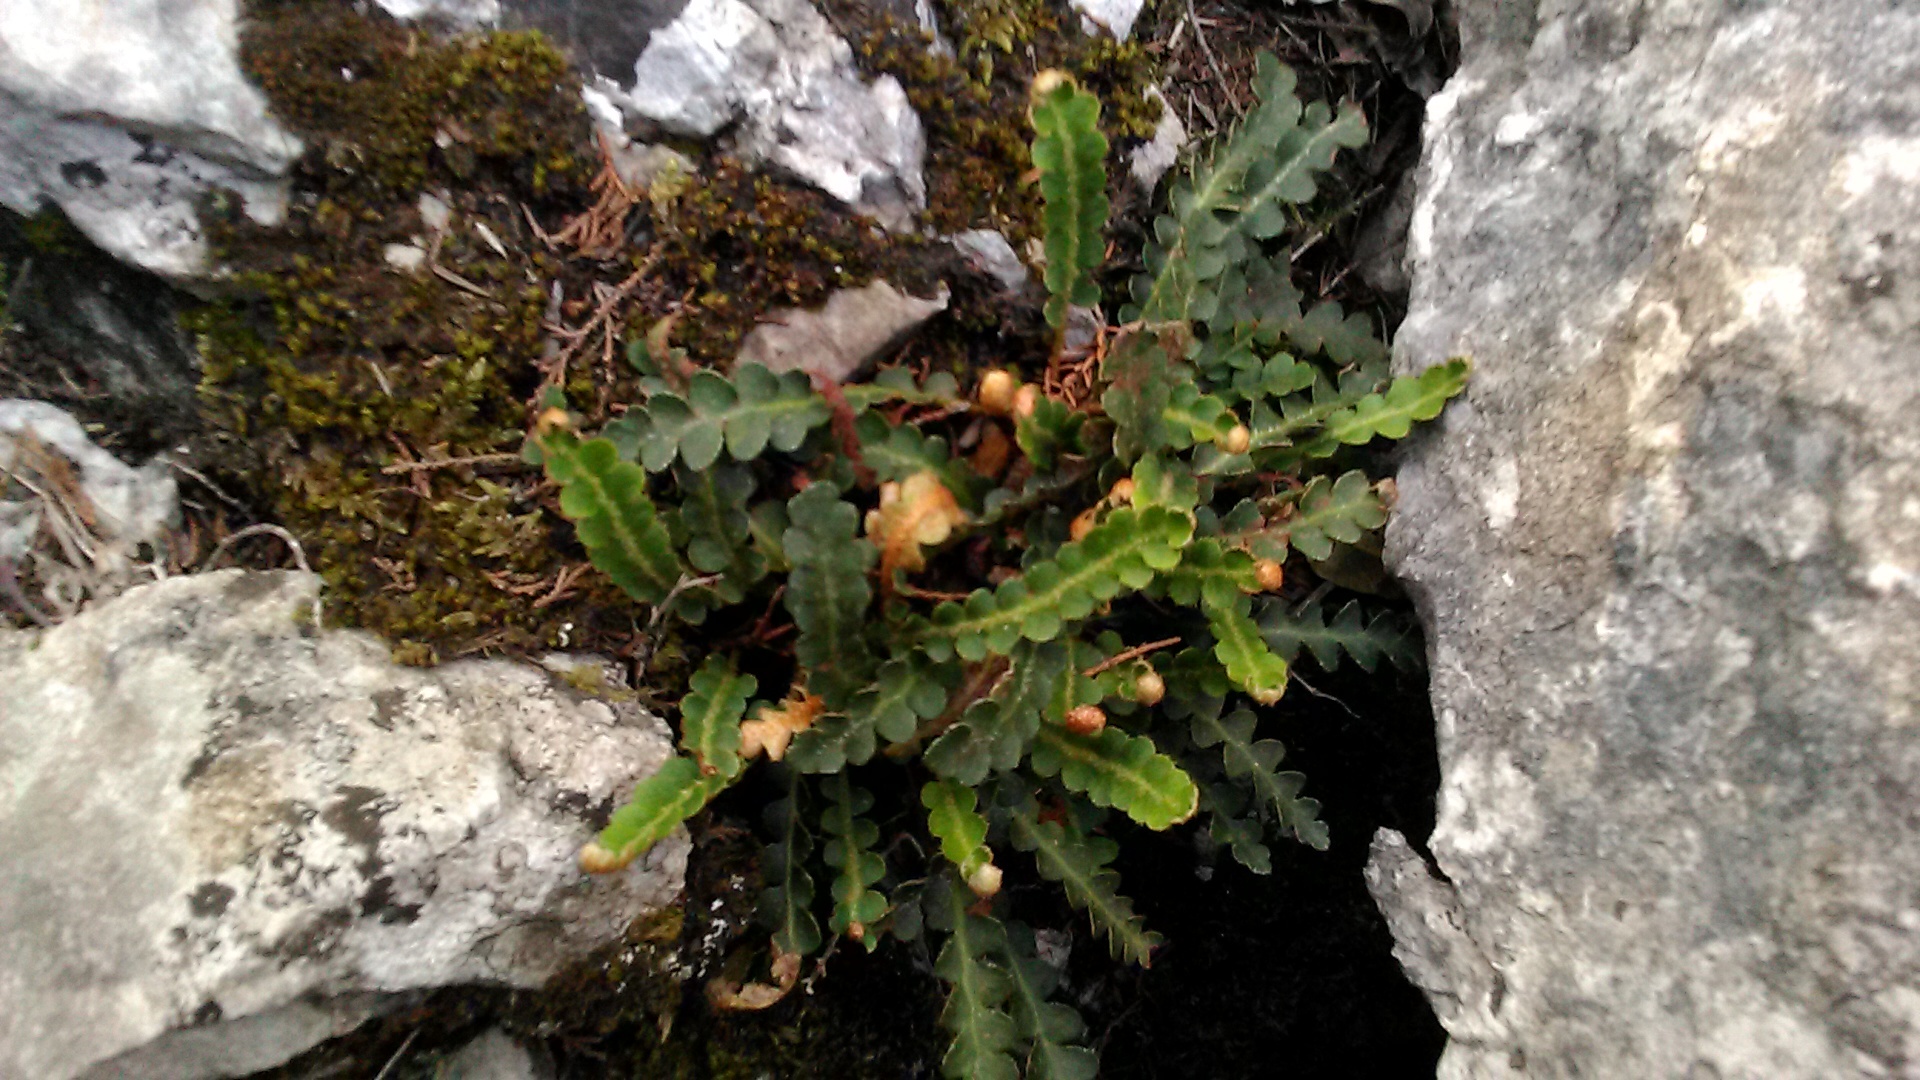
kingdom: Plantae
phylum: Tracheophyta
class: Polypodiopsida
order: Polypodiales
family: Aspleniaceae
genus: Asplenium
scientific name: Asplenium ceterach
